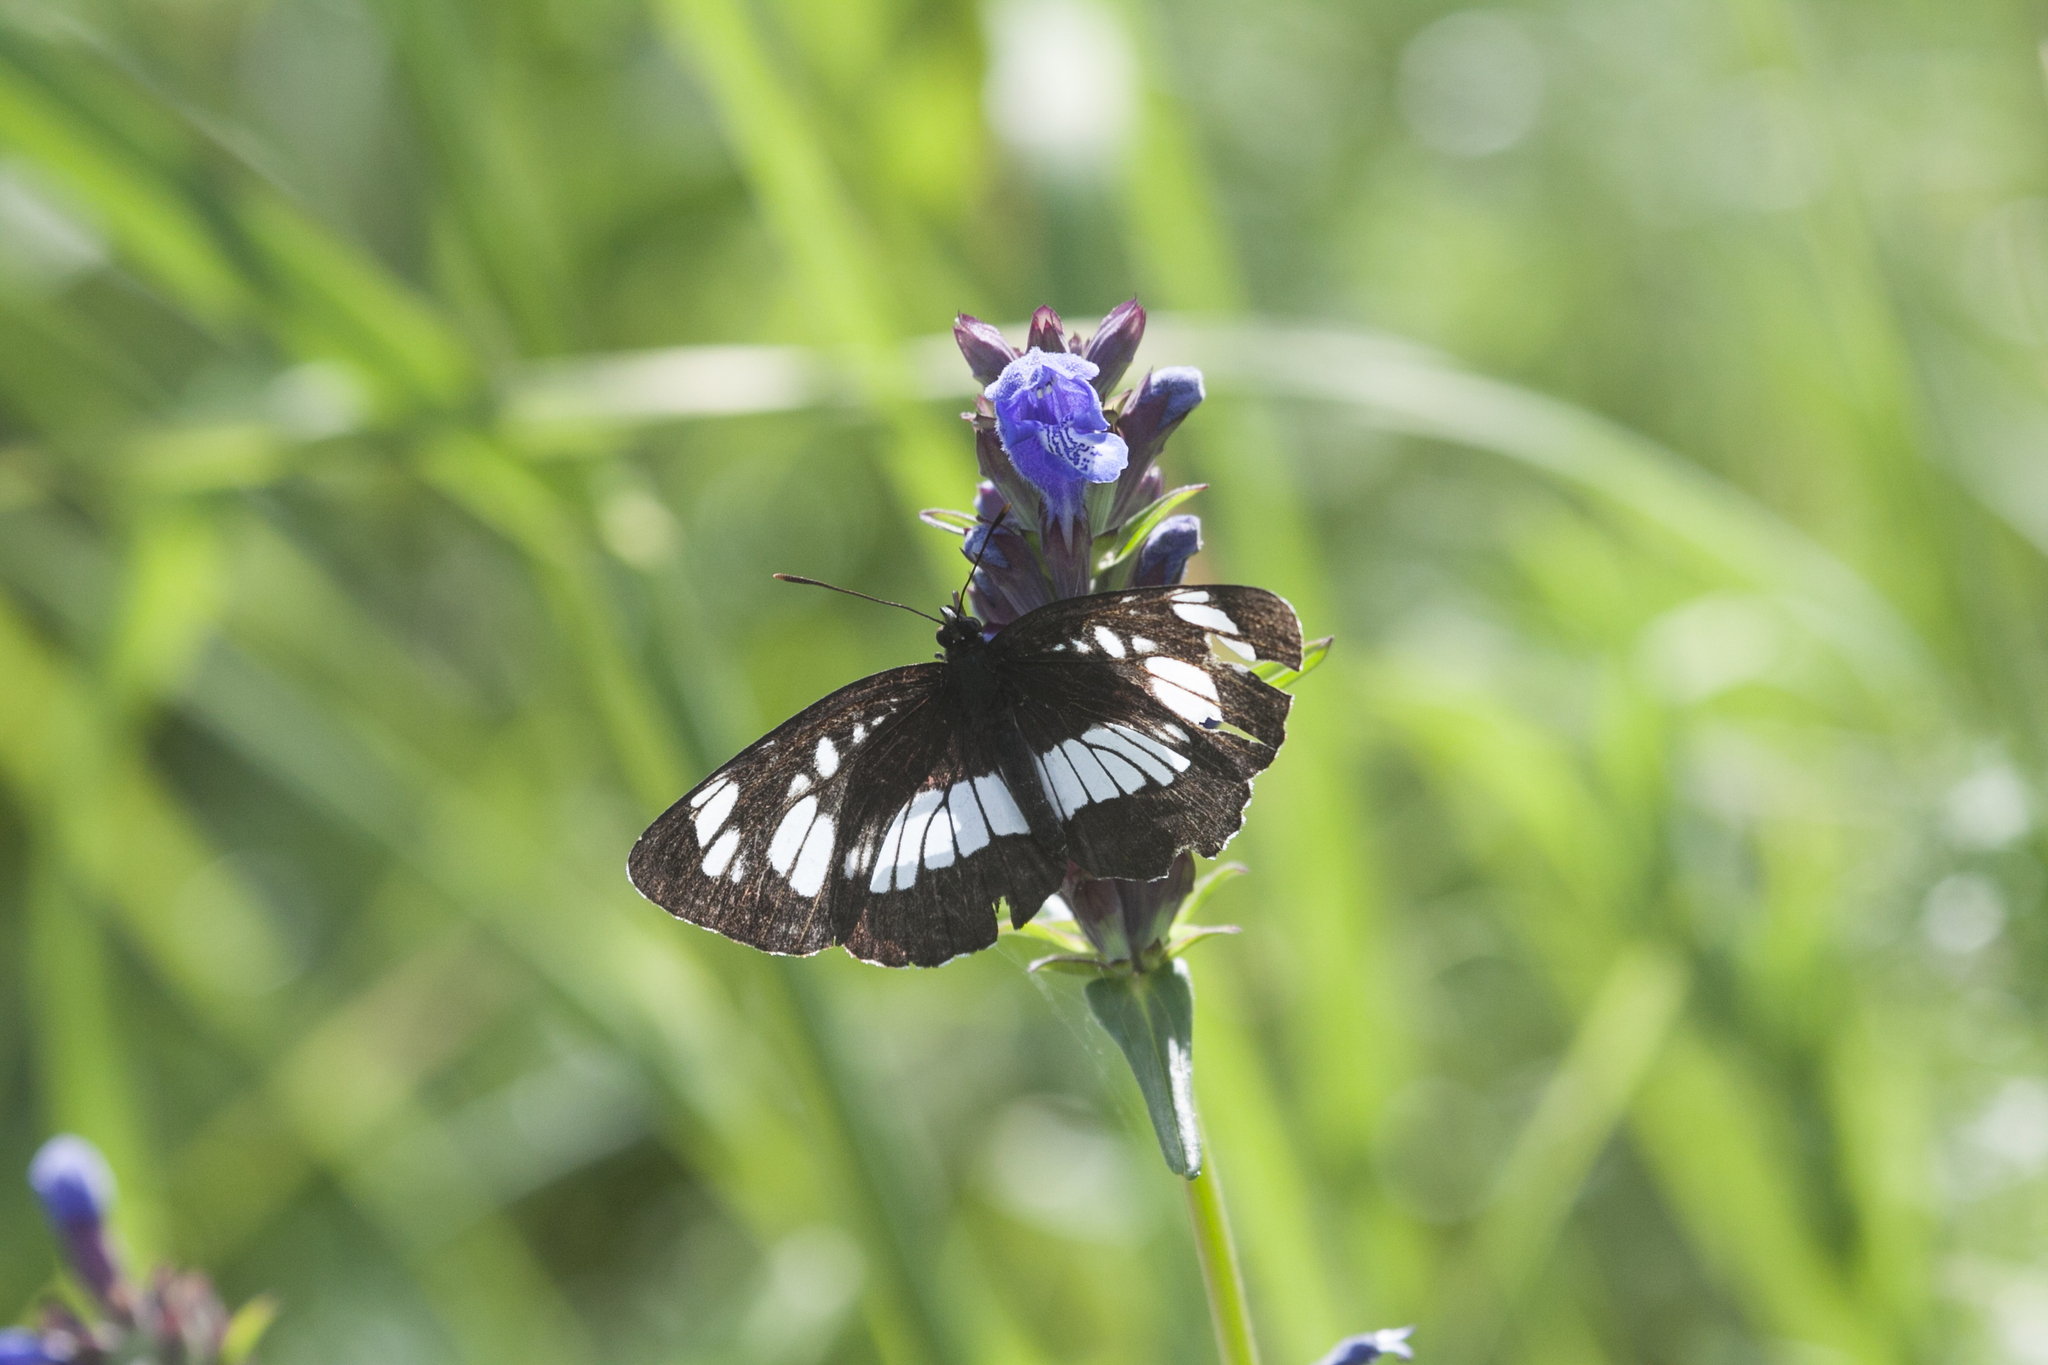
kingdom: Animalia
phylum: Arthropoda
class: Insecta
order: Lepidoptera
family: Nymphalidae
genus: Neptis
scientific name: Neptis rivularis
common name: Hungarian glider
